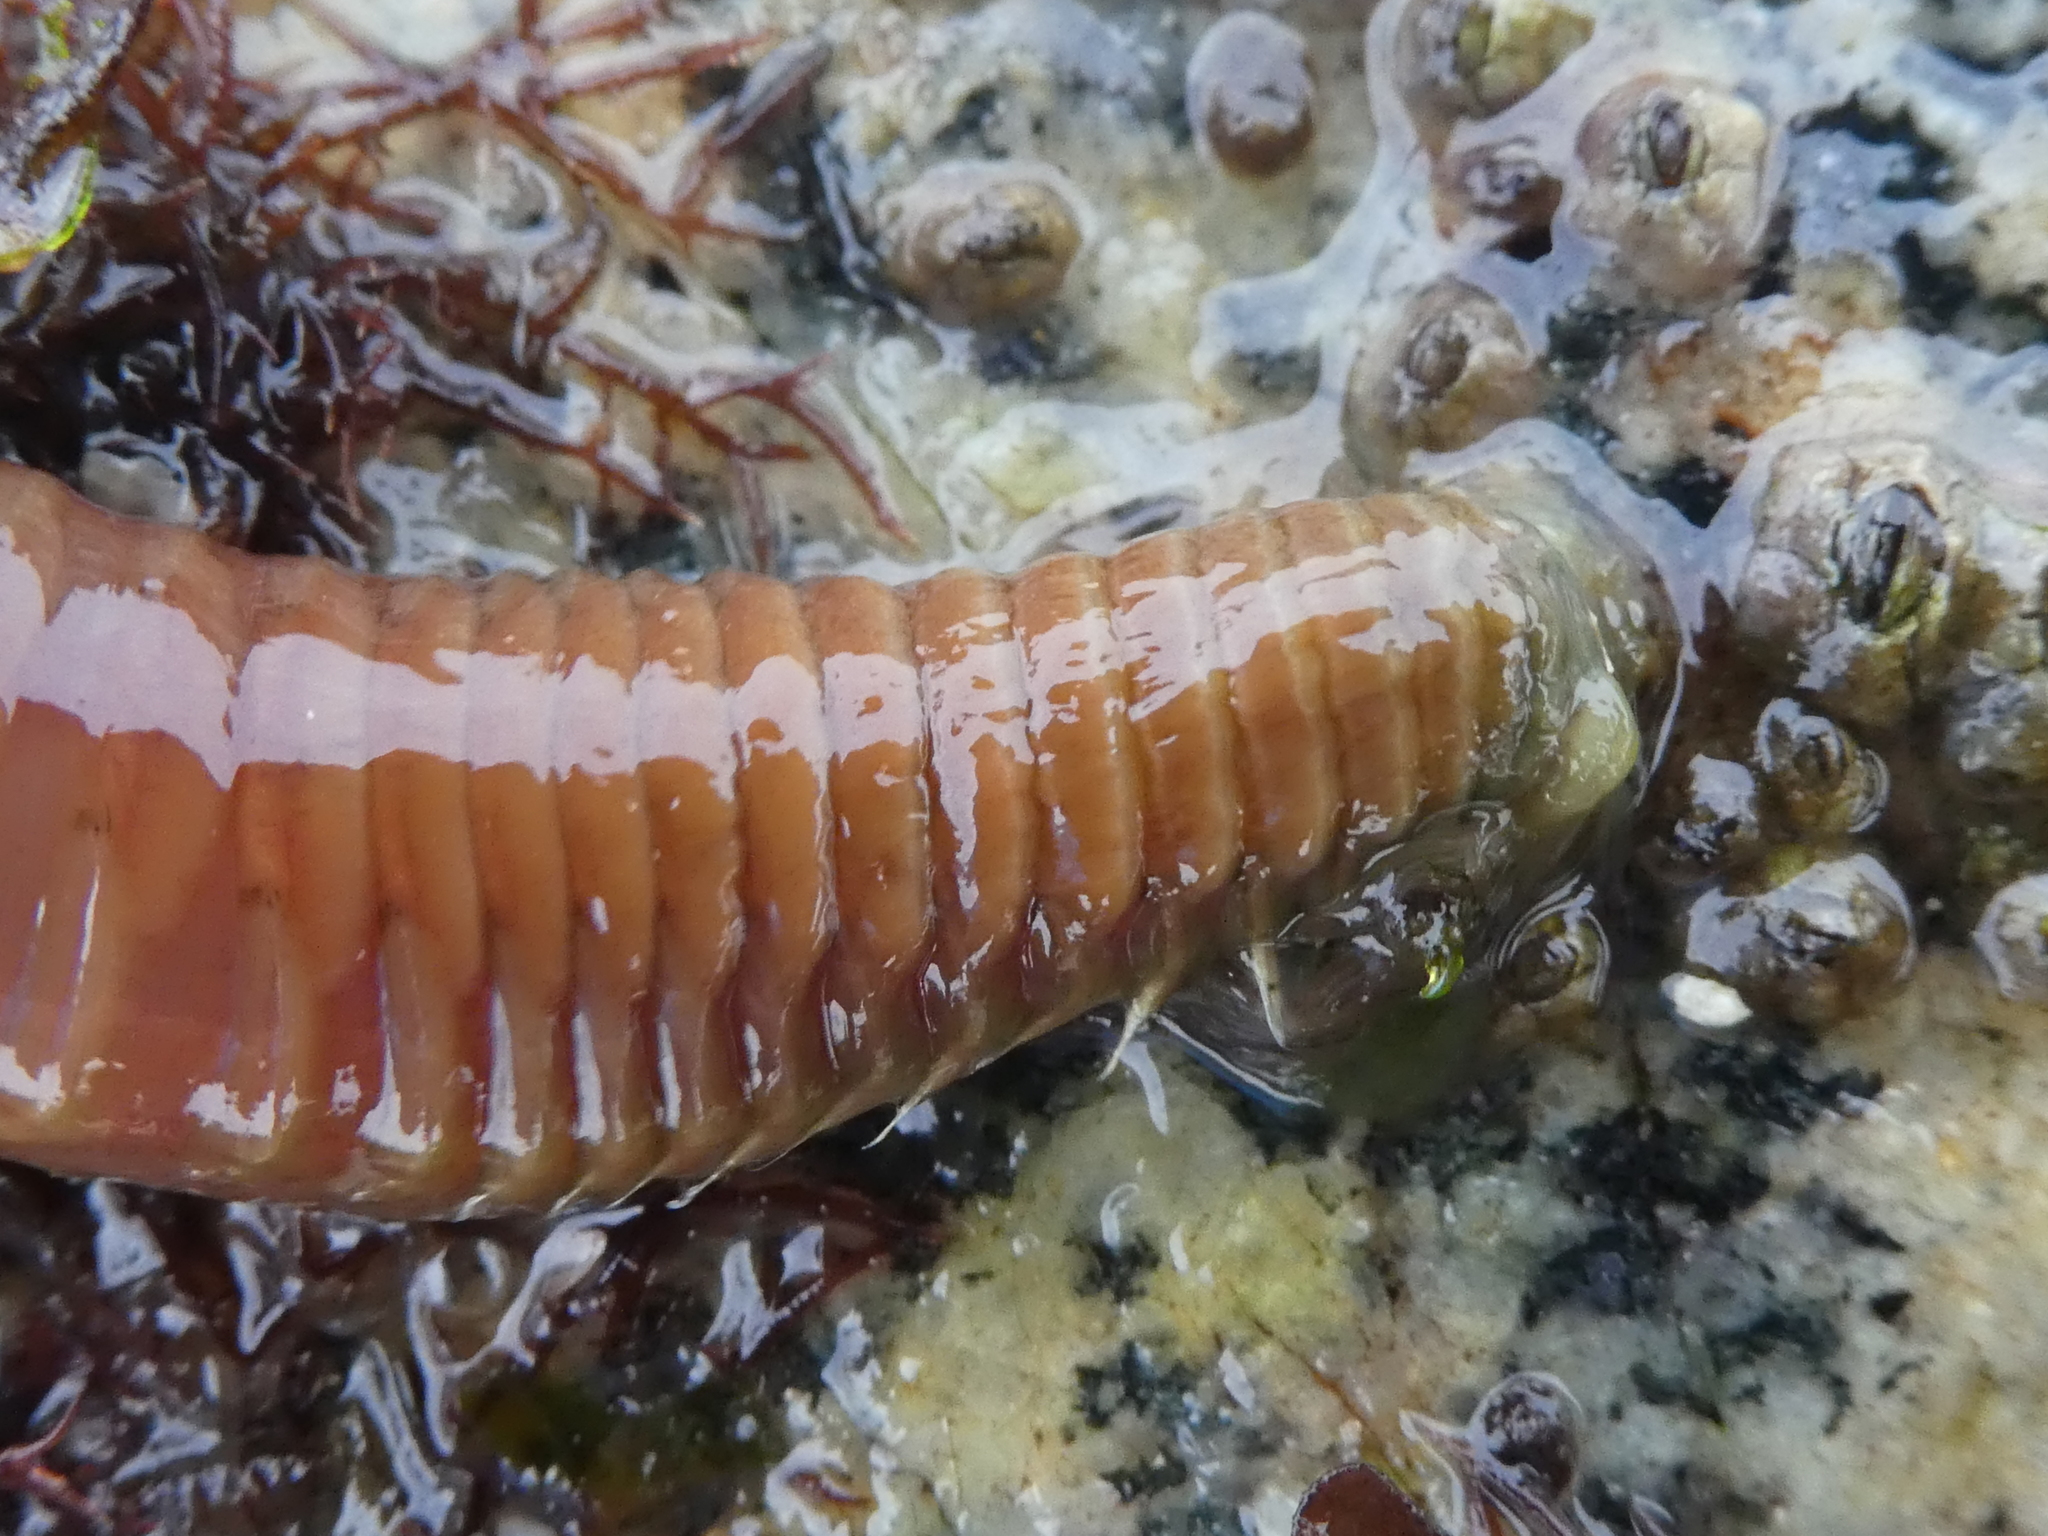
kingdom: Animalia
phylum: Annelida
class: Polychaeta
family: Terebellidae
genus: Eupolymnia
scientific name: Eupolymnia heterobranchia
